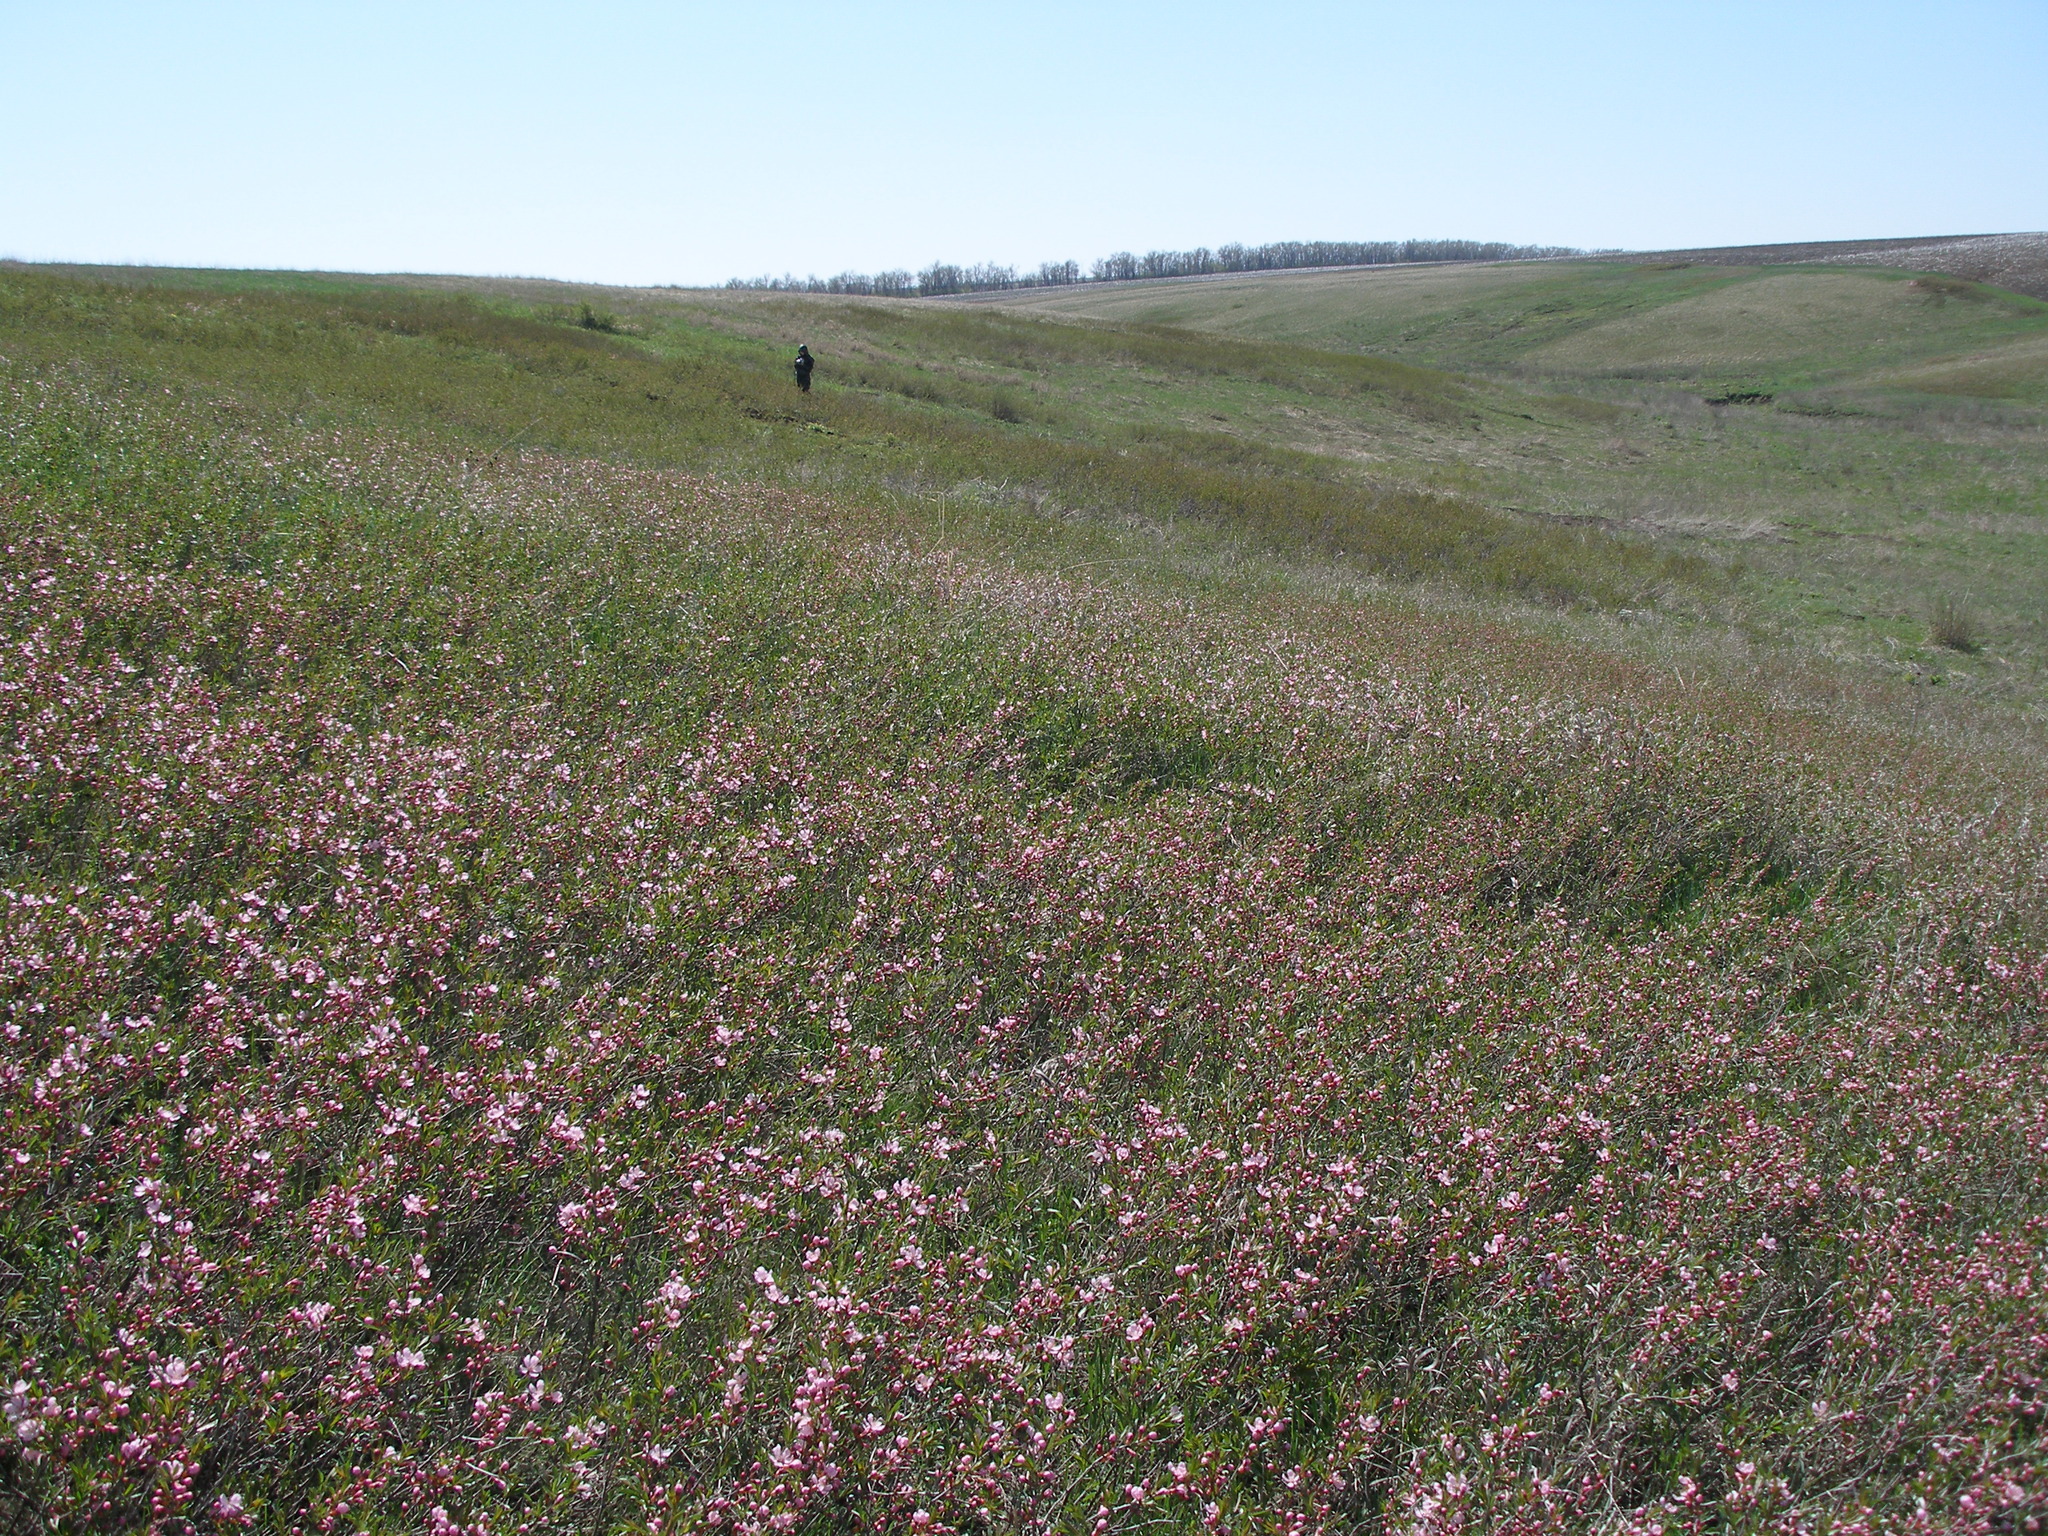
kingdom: Plantae
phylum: Tracheophyta
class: Magnoliopsida
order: Rosales
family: Rosaceae
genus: Prunus
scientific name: Prunus tenella
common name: Dwarf russian almond
